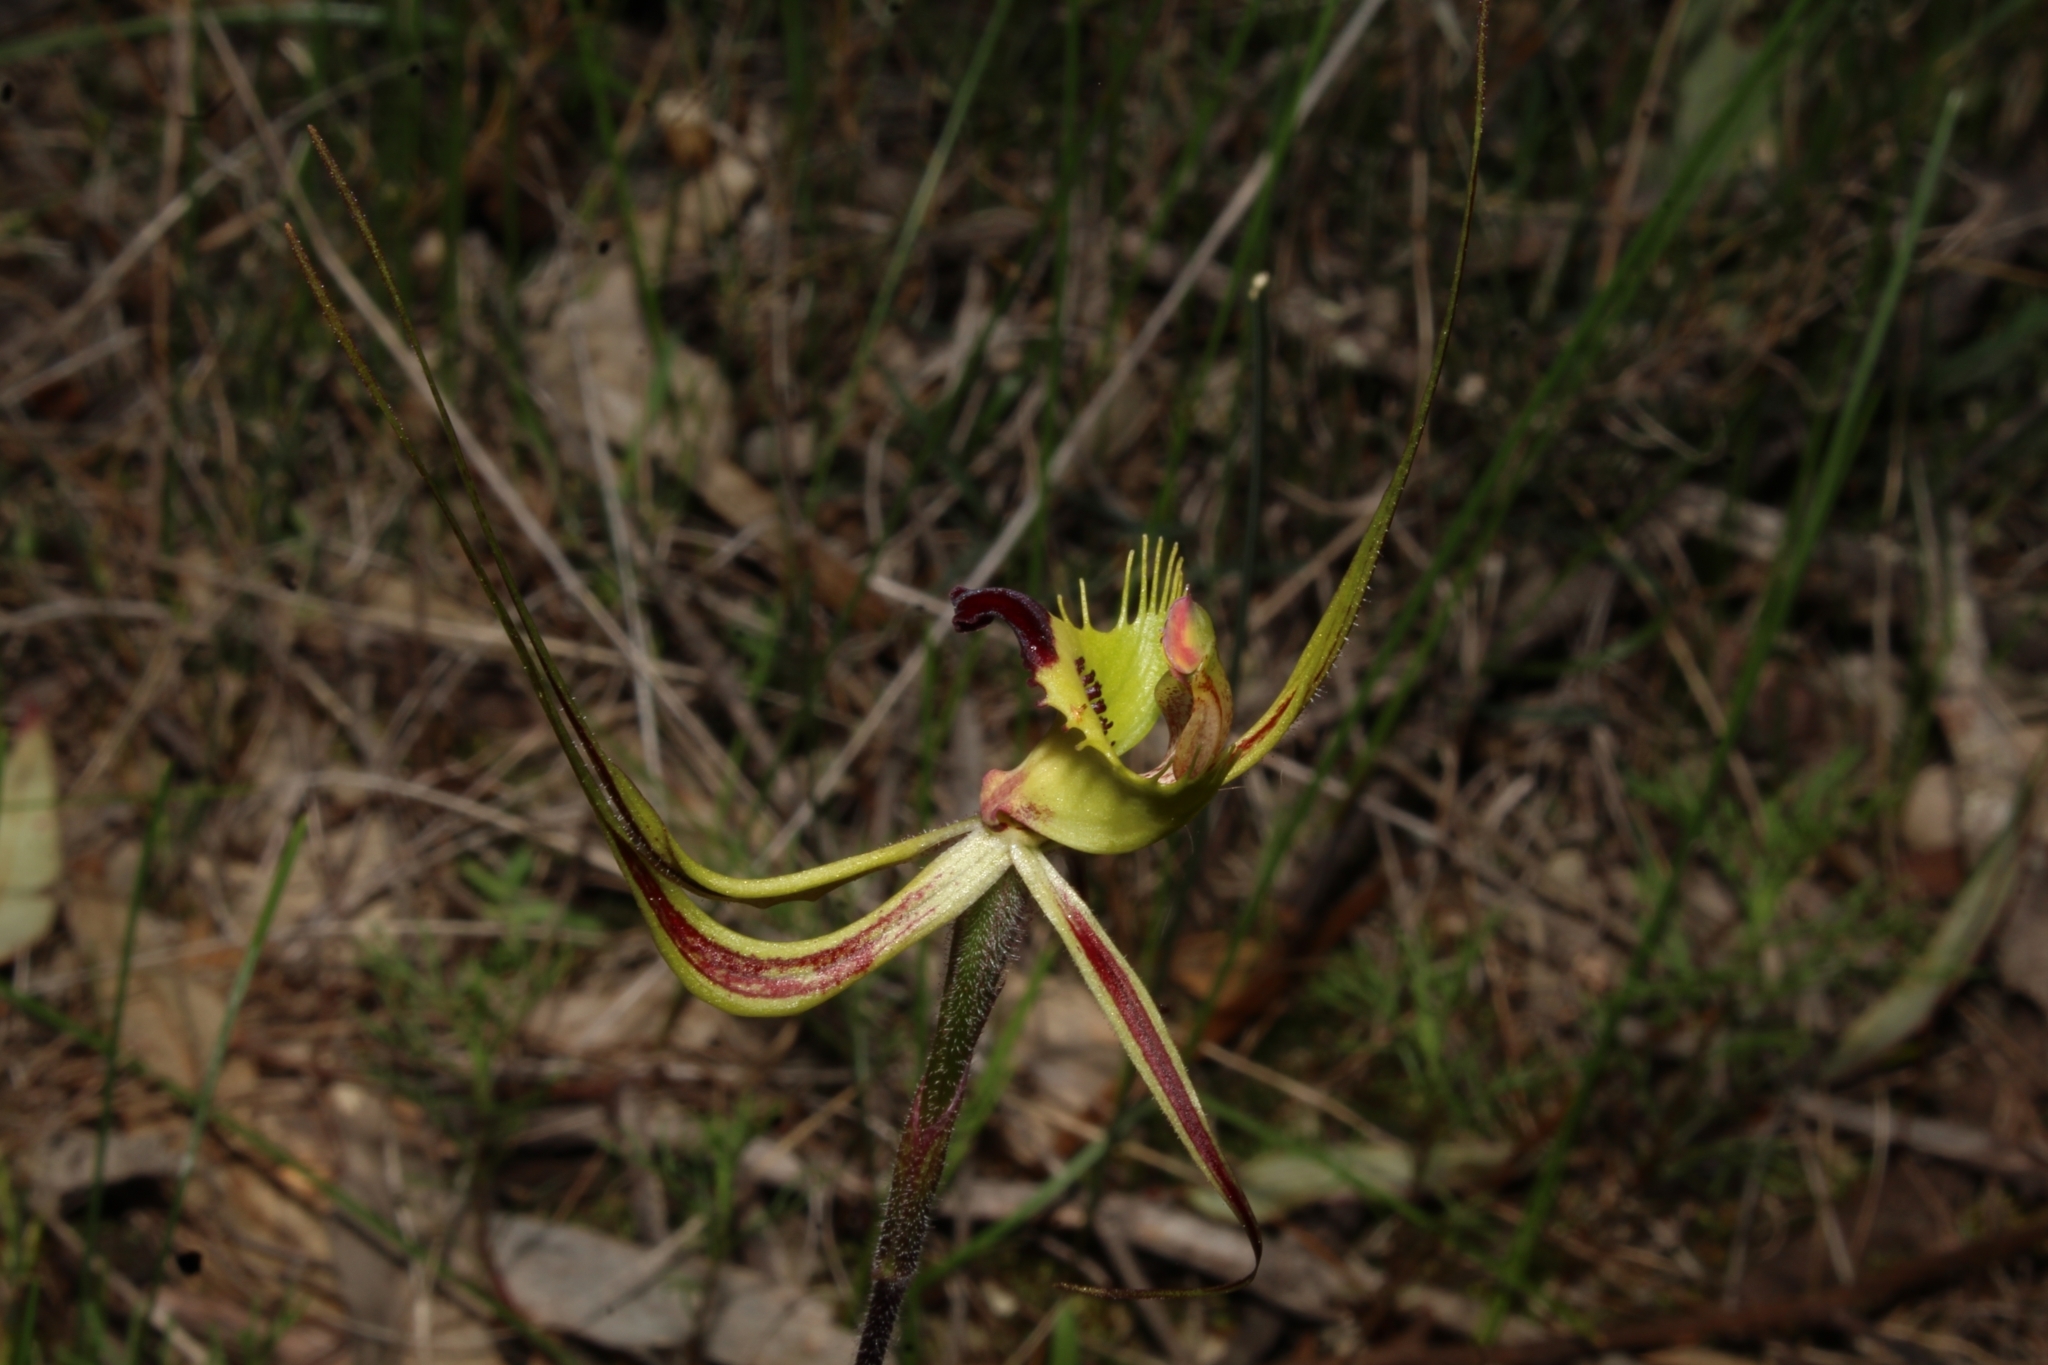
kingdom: Plantae
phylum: Tracheophyta
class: Liliopsida
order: Asparagales
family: Orchidaceae
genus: Caladenia
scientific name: Caladenia falcata
